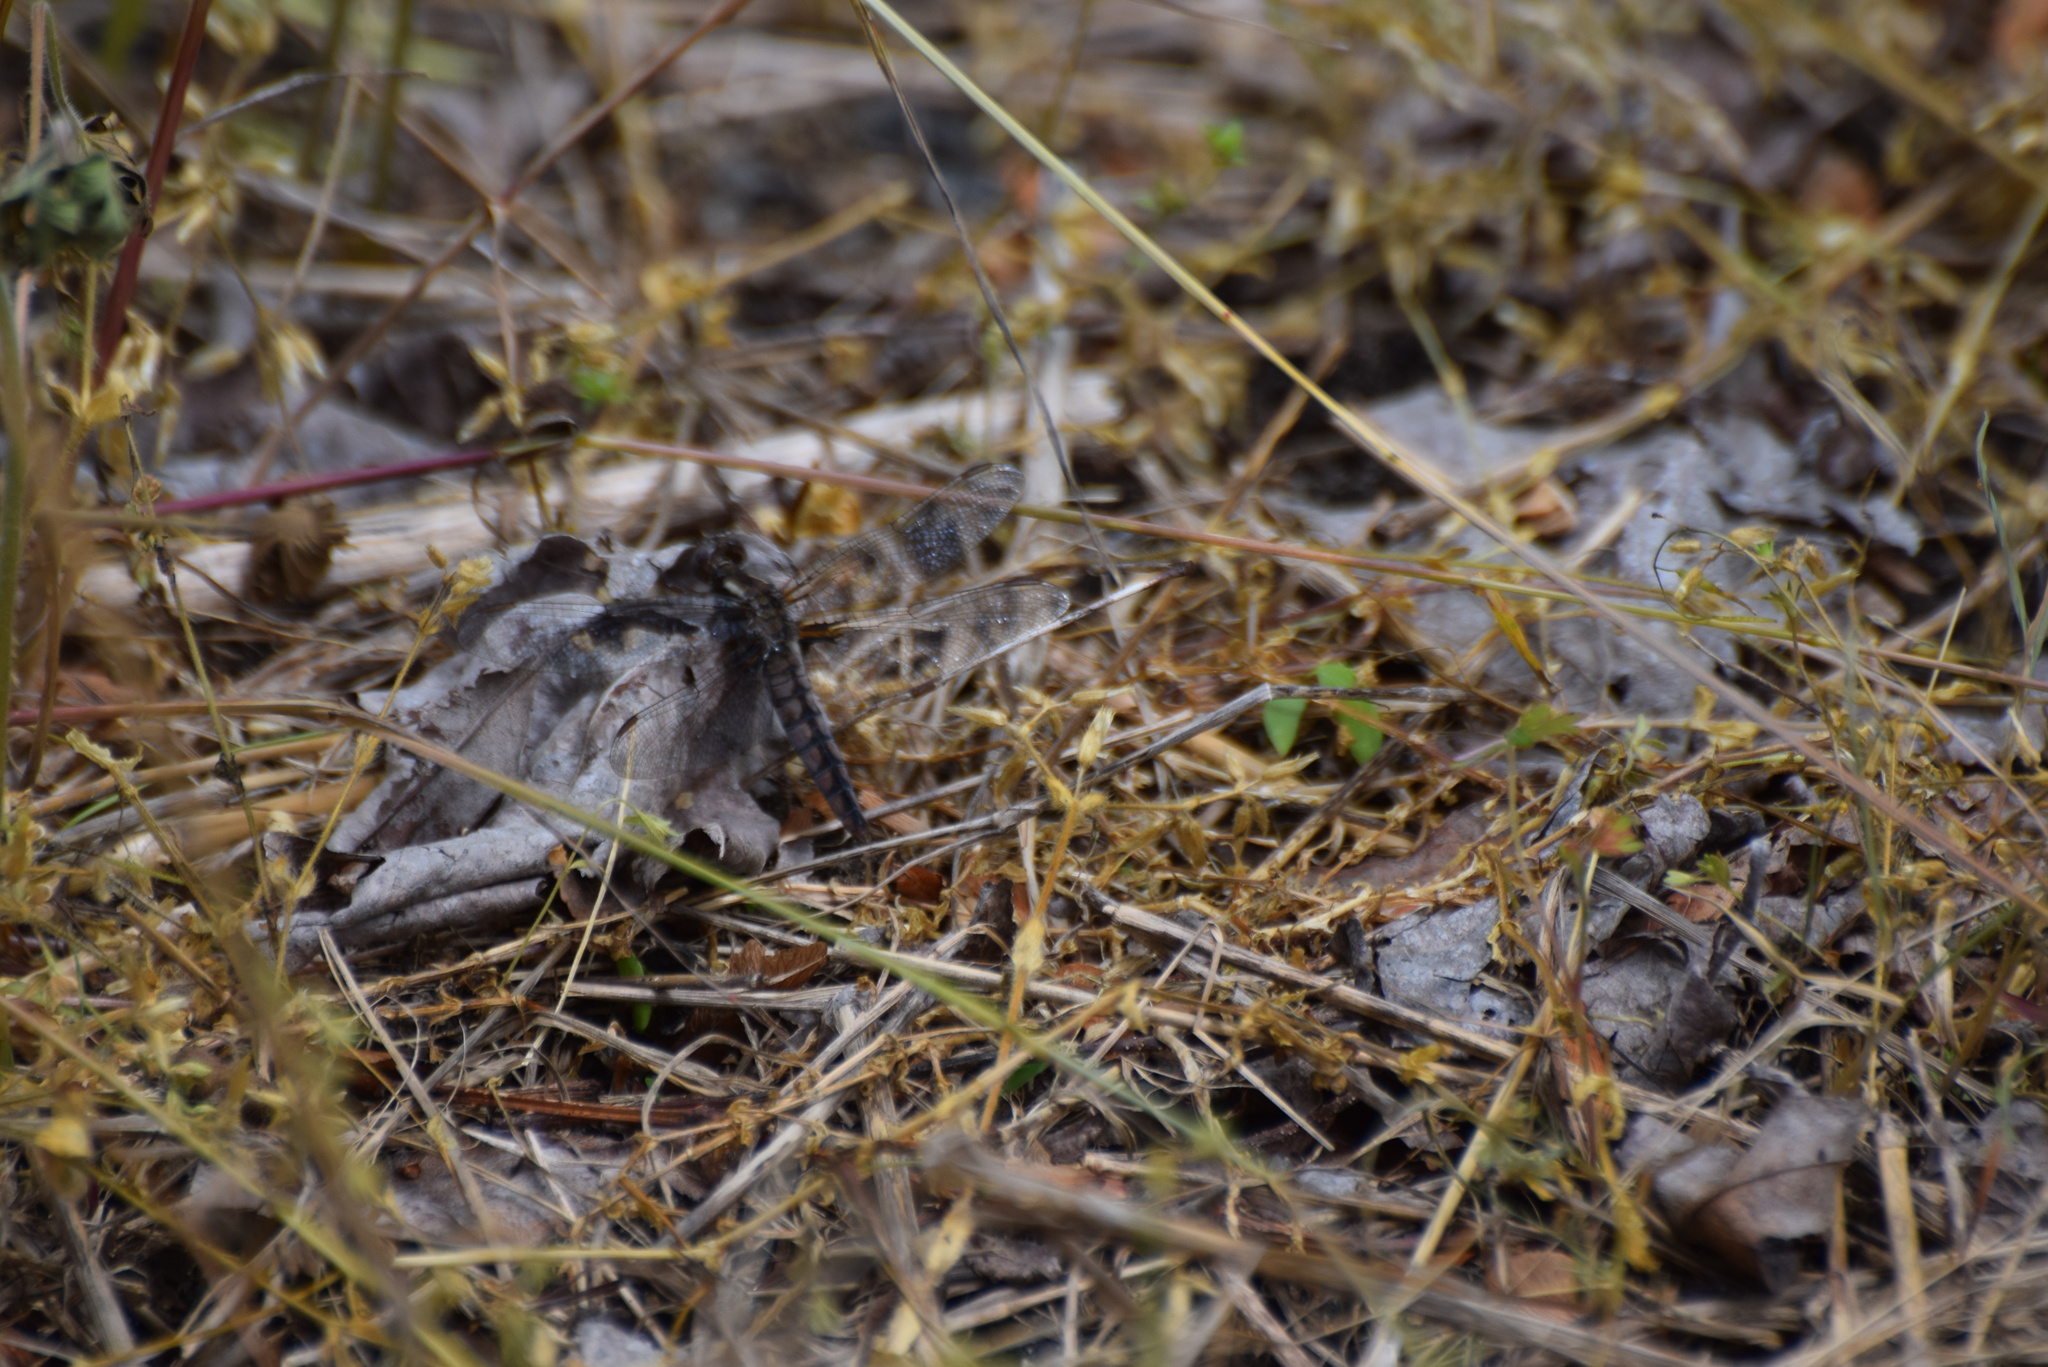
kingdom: Animalia
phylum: Arthropoda
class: Insecta
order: Odonata
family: Libellulidae
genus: Ladona
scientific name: Ladona deplanata
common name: Blue corporal
